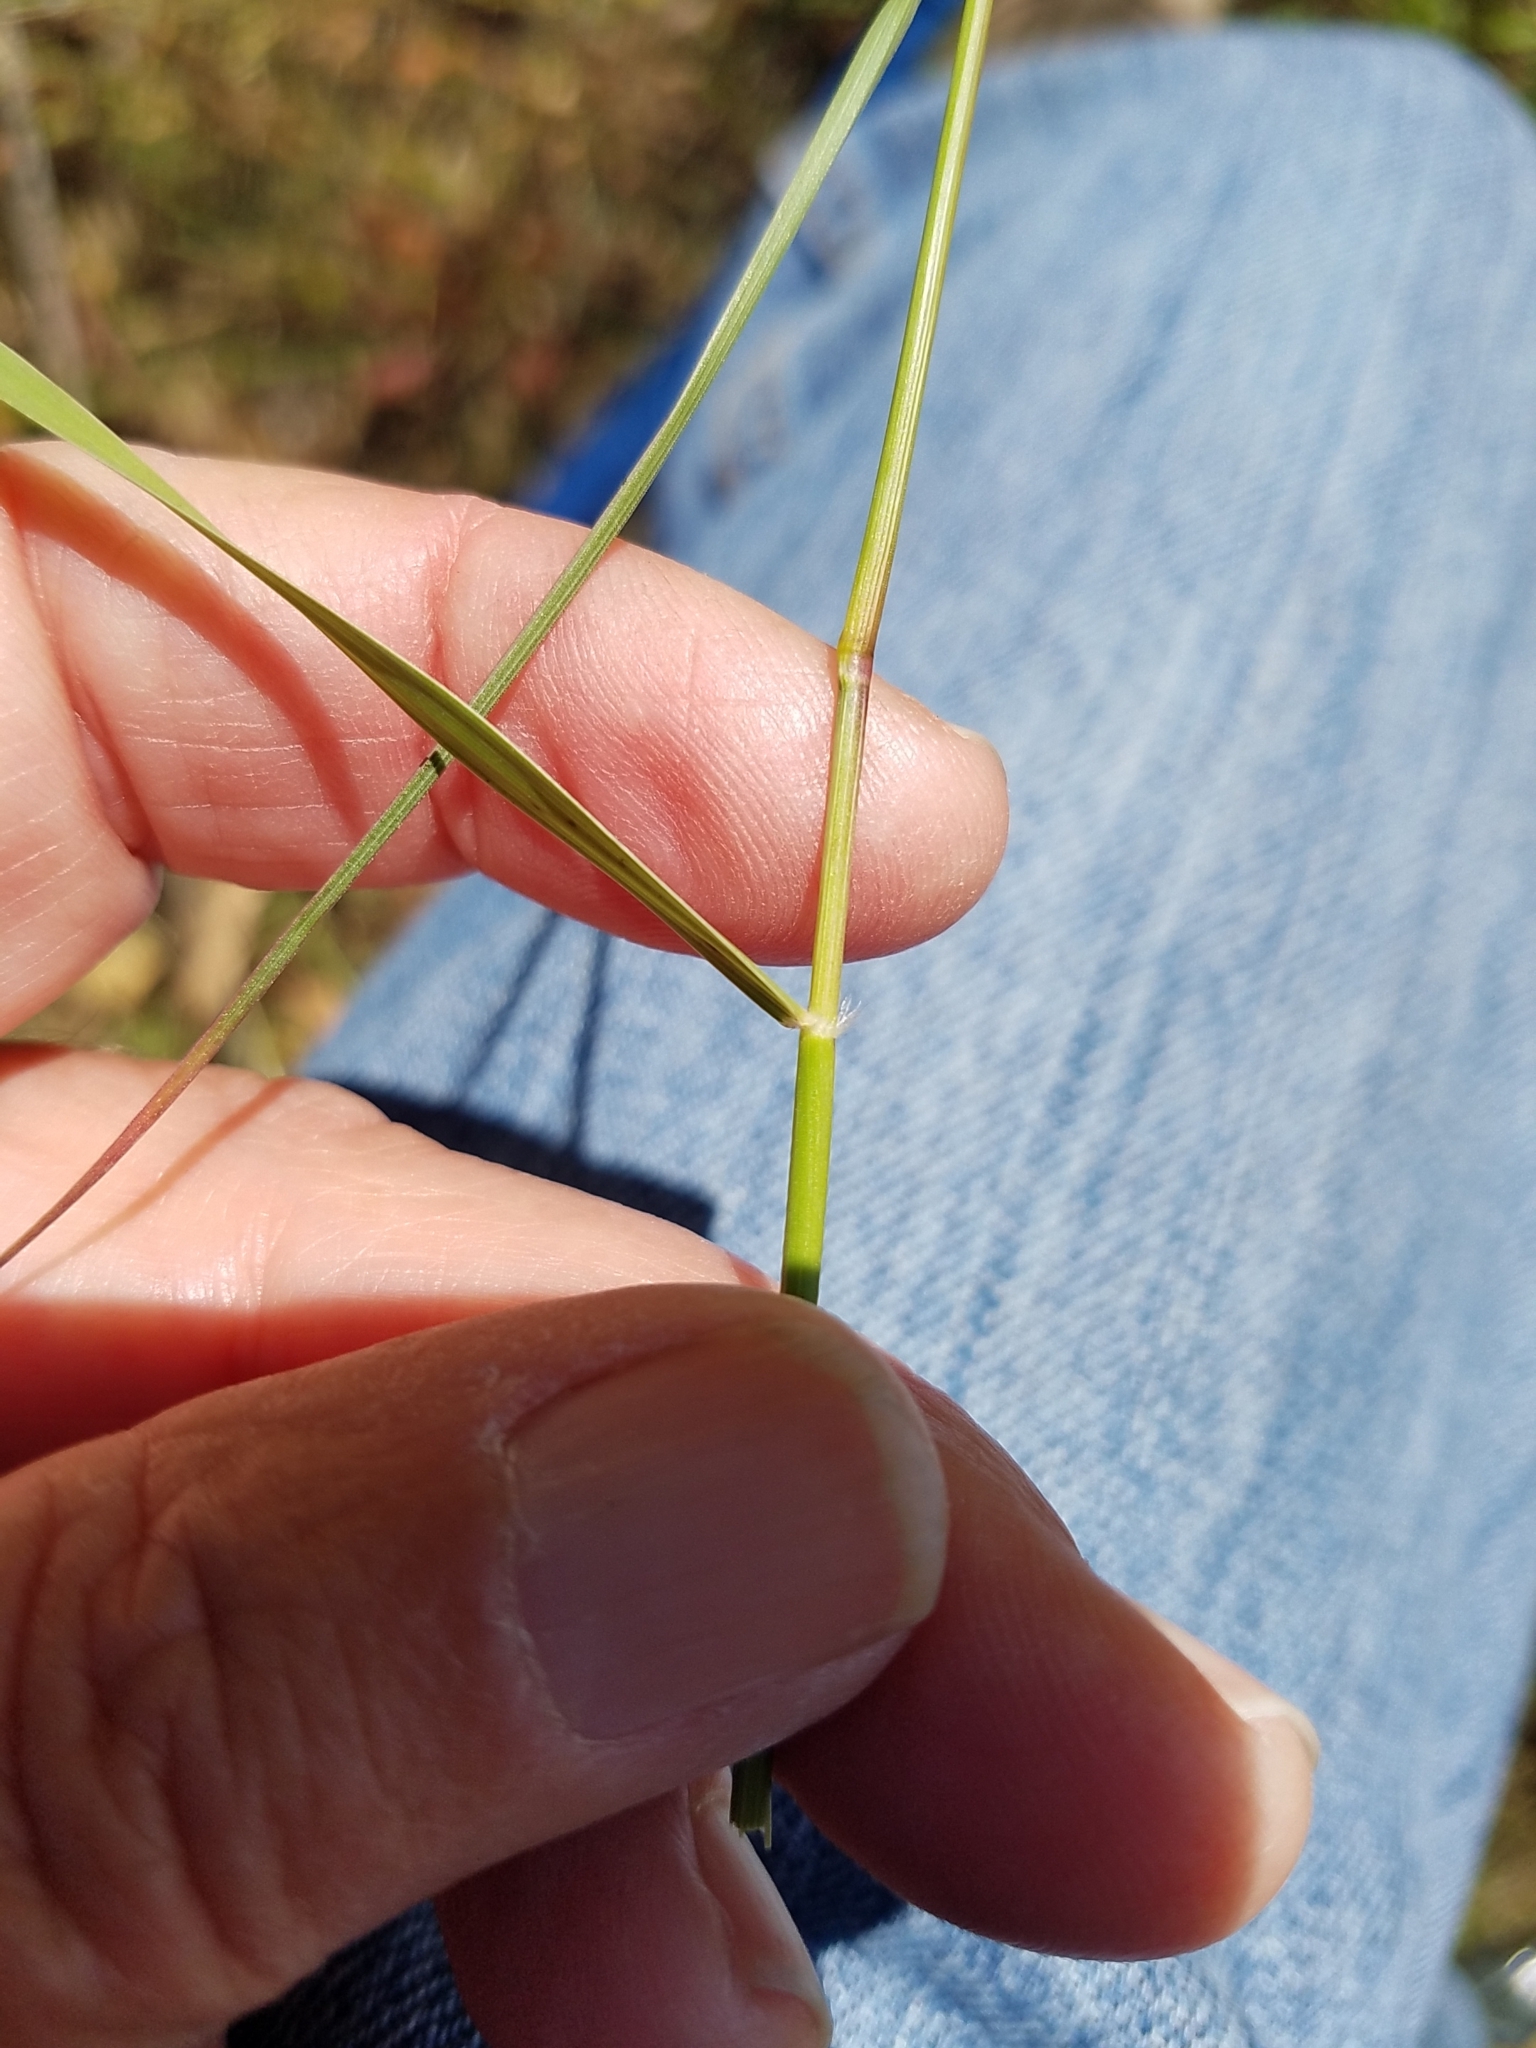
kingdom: Plantae
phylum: Tracheophyta
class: Liliopsida
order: Poales
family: Poaceae
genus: Danthonia
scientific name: Danthonia californica
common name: California oat grass
